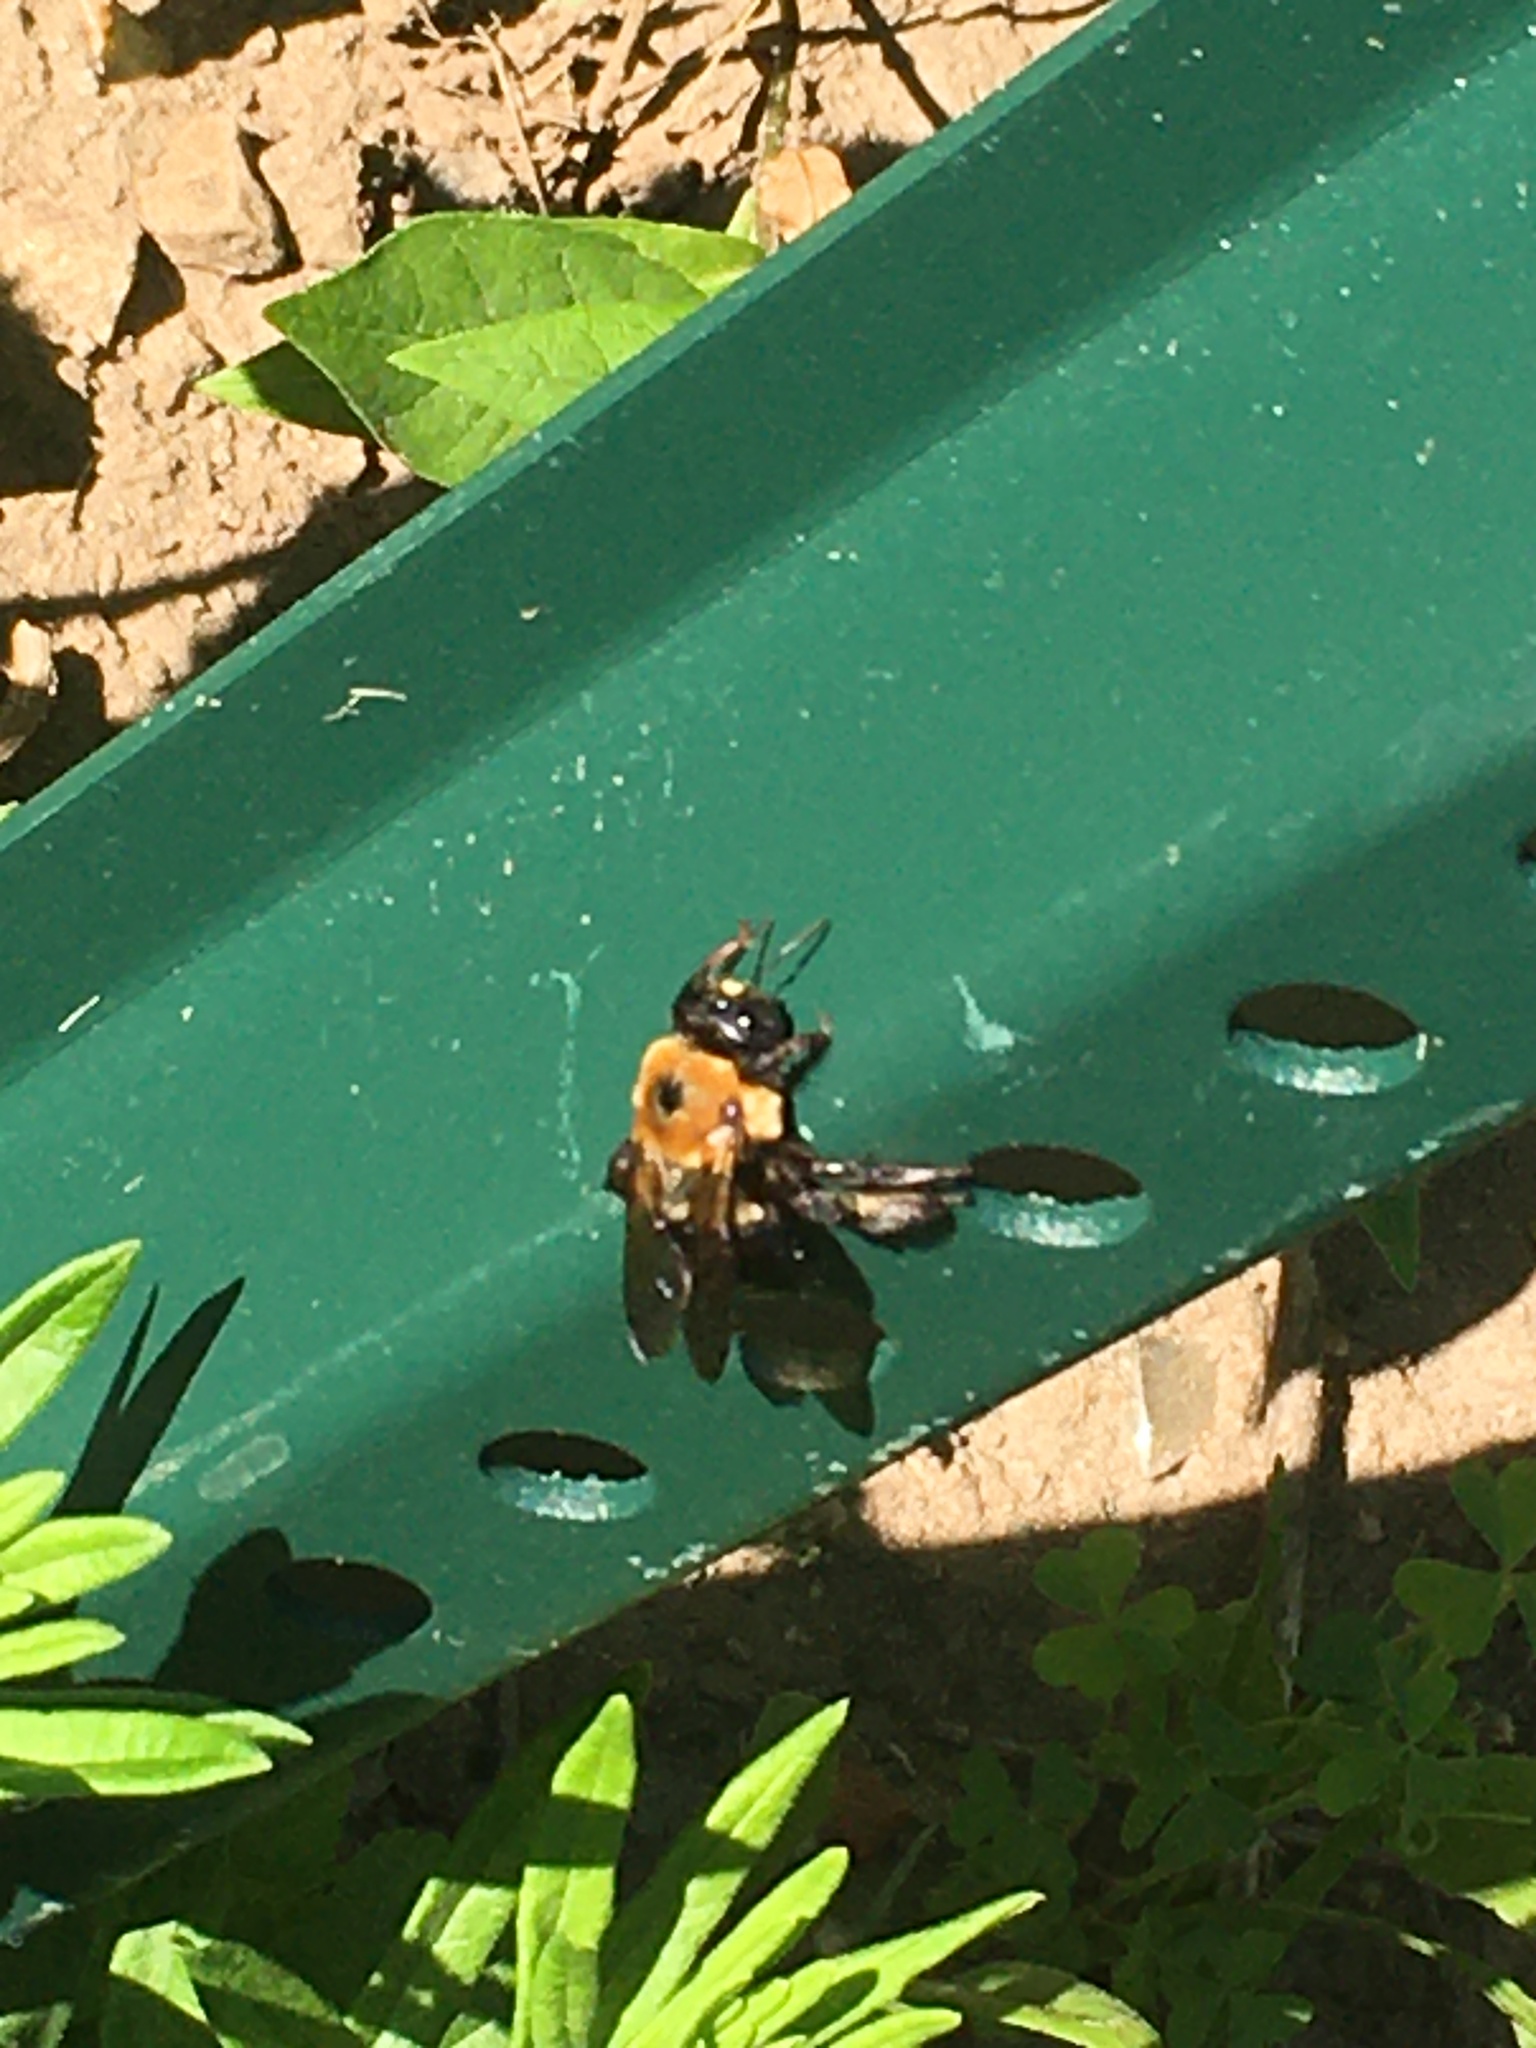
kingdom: Animalia
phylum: Arthropoda
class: Insecta
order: Hymenoptera
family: Apidae
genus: Xylocopa
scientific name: Xylocopa virginica
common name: Carpenter bee
